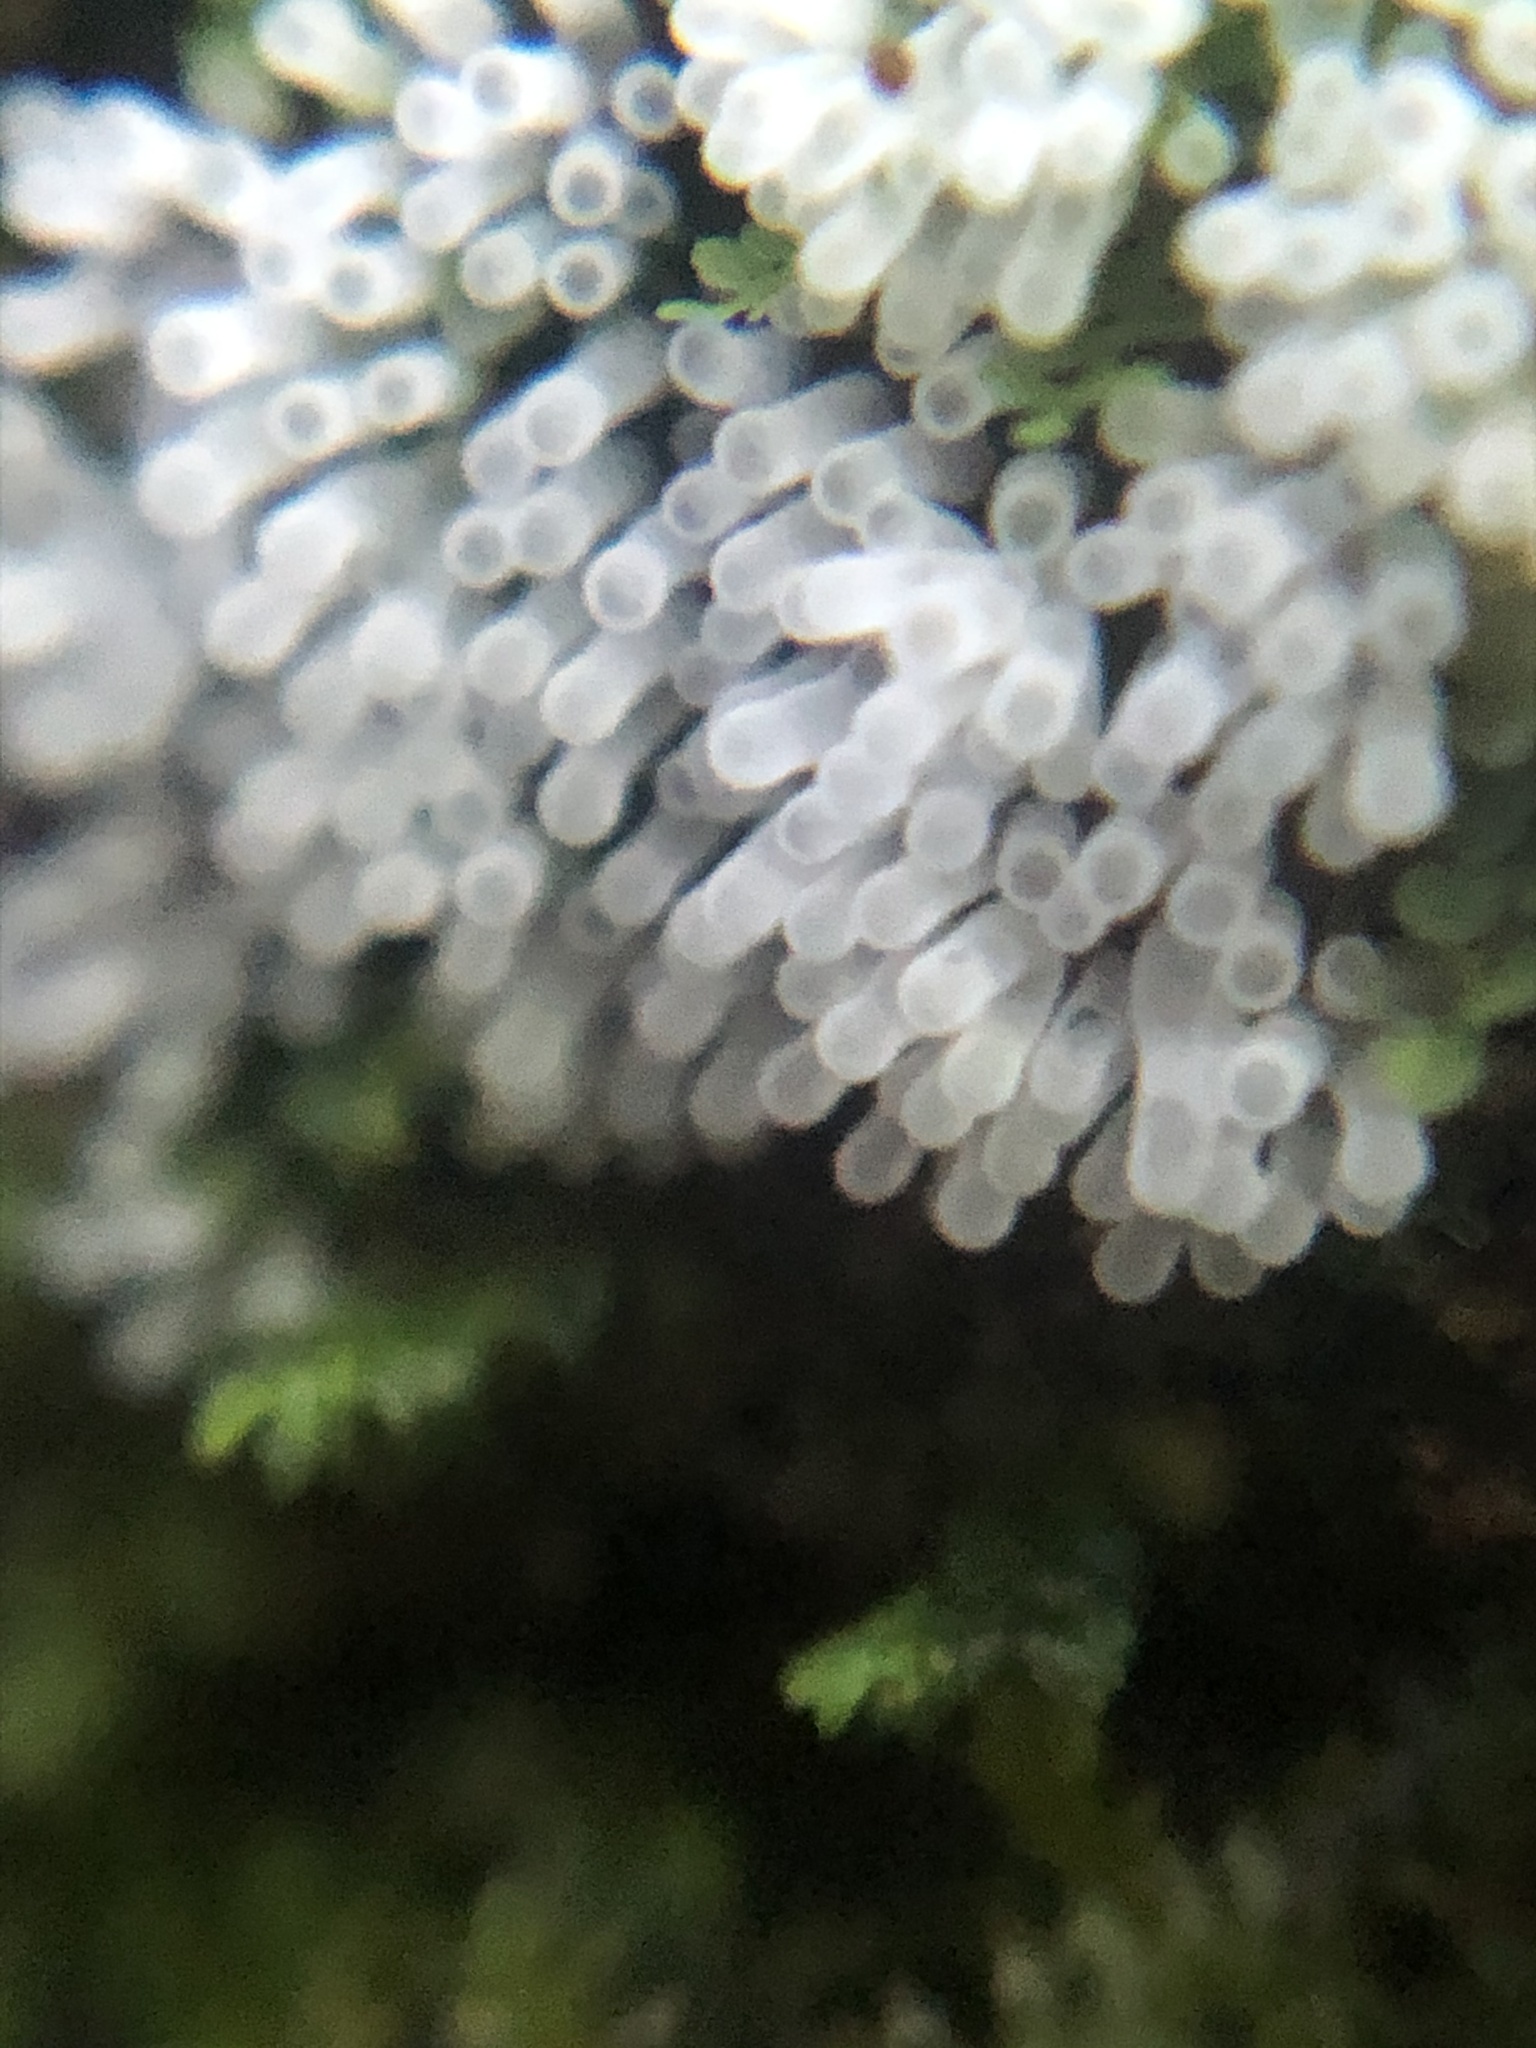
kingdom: Protozoa
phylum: Mycetozoa
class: Protosteliomycetes
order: Ceratiomyxales
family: Ceratiomyxaceae
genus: Ceratiomyxa
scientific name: Ceratiomyxa fruticulosa
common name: Honeycomb coral slime mold
